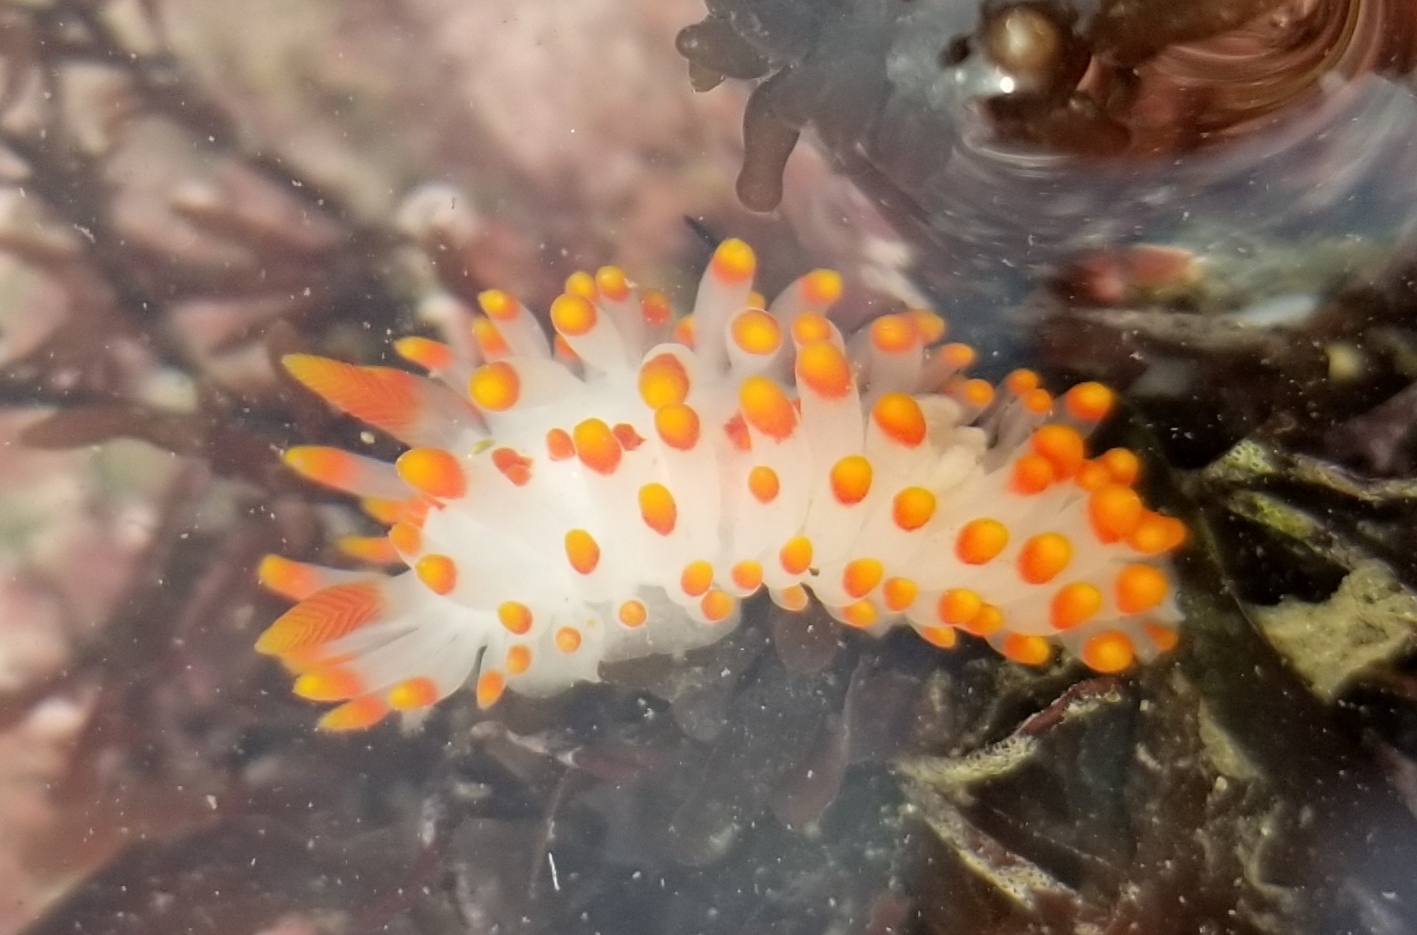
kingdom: Animalia
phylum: Mollusca
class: Gastropoda
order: Nudibranchia
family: Polyceridae
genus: Limacia
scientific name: Limacia mcdonaldi
